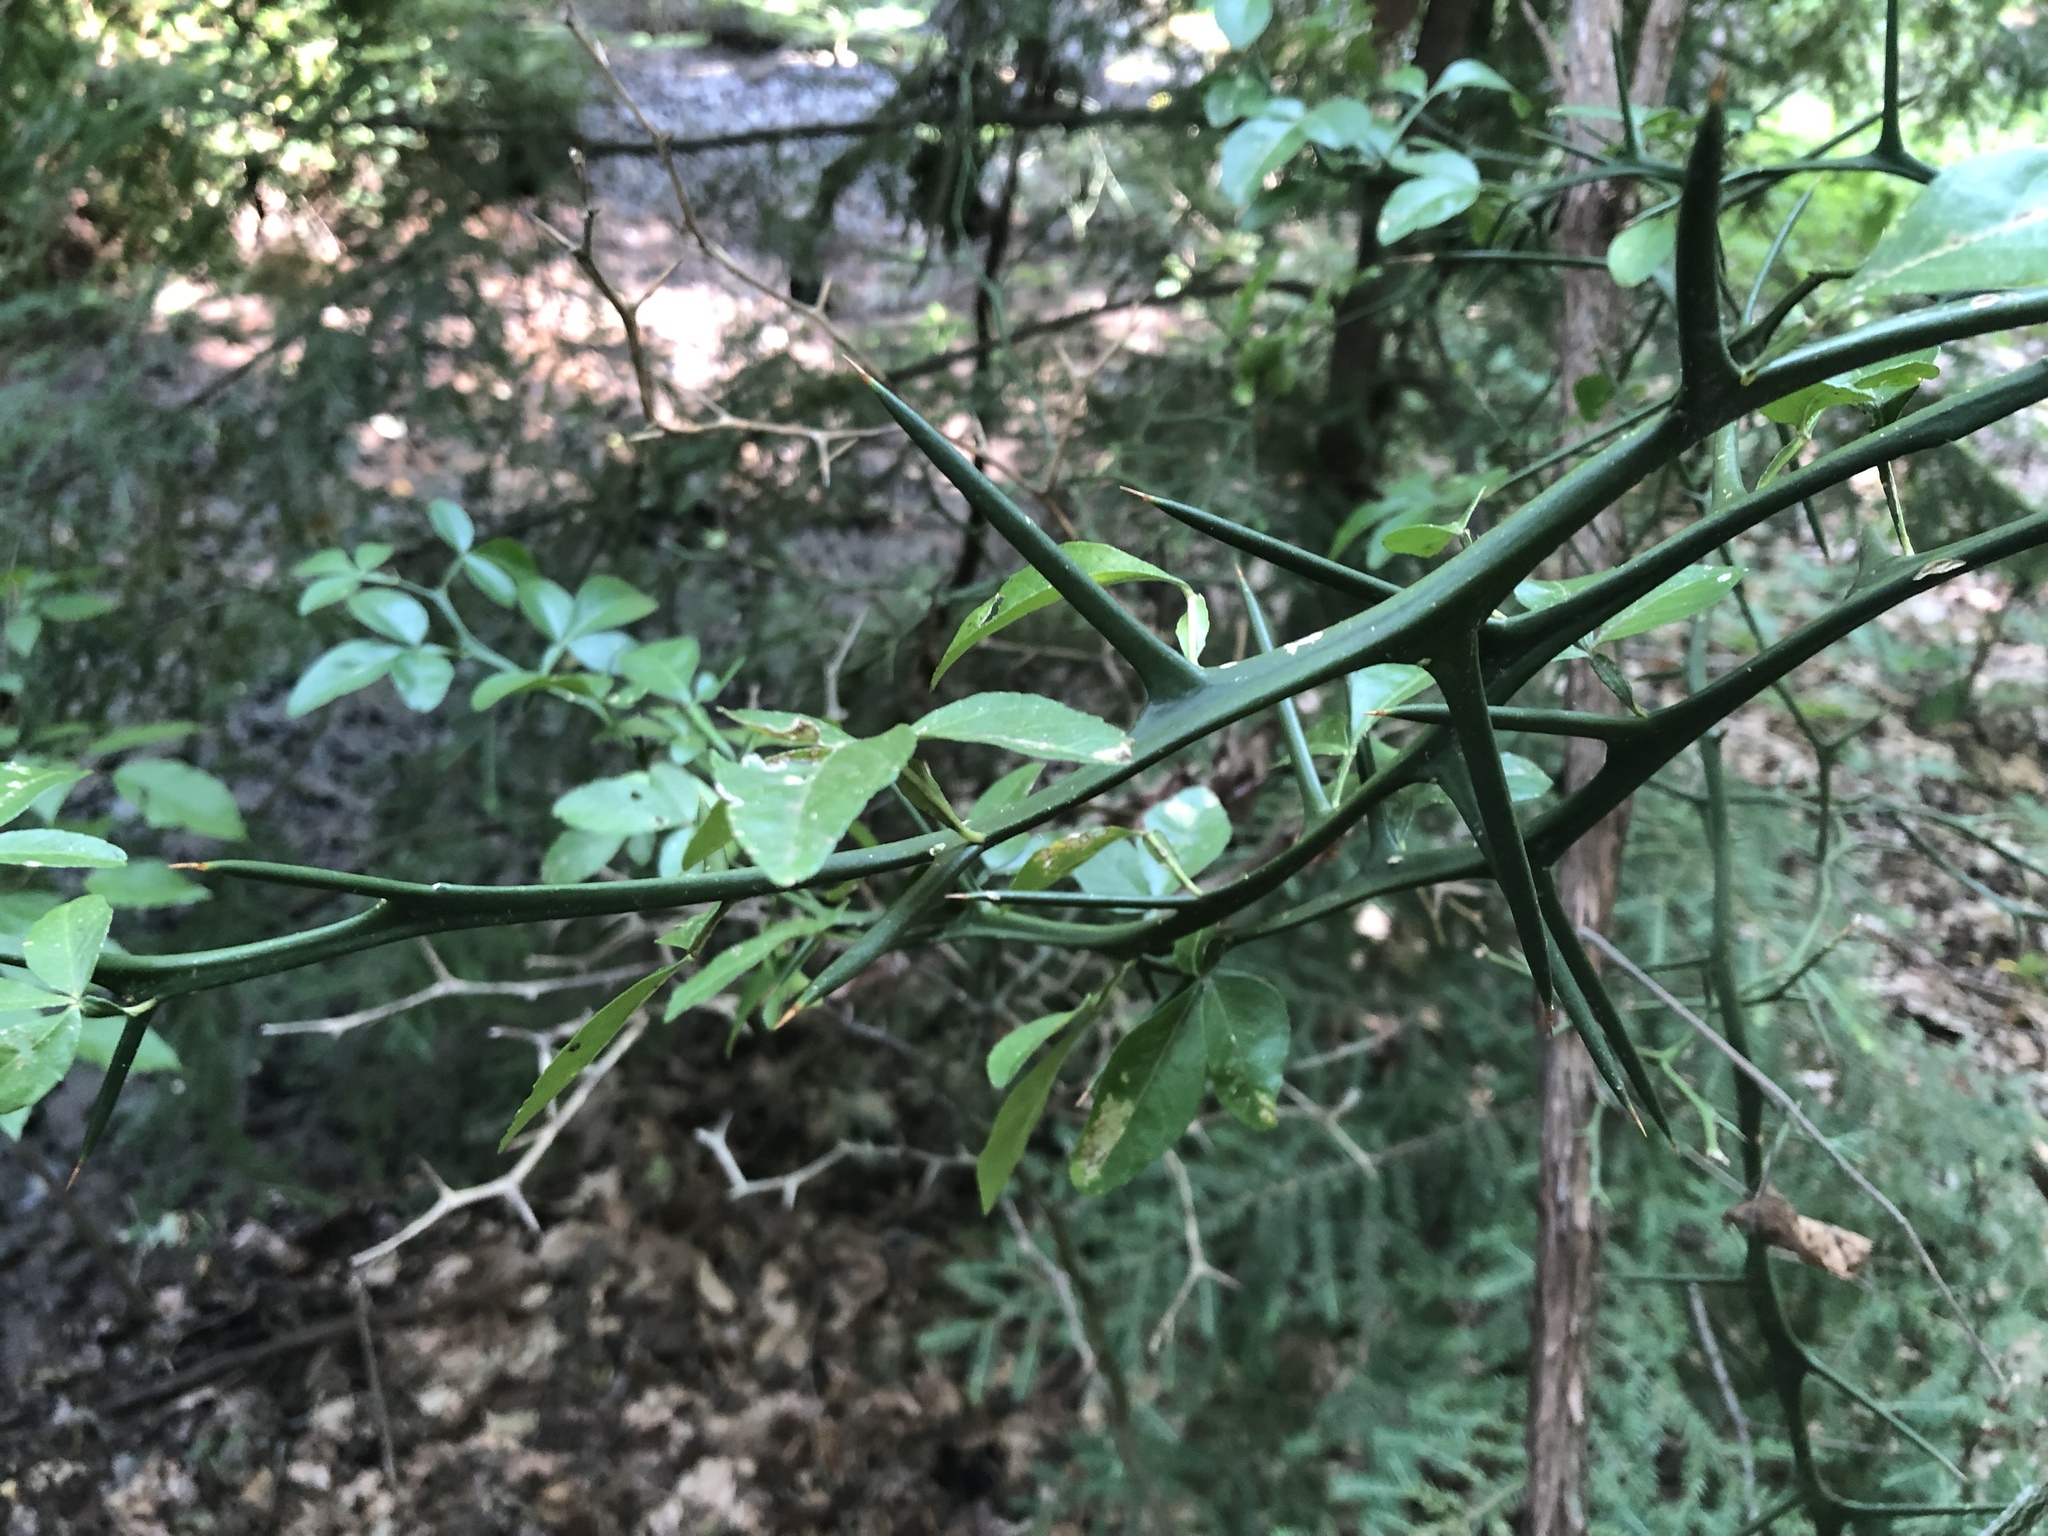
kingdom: Plantae
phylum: Tracheophyta
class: Magnoliopsida
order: Sapindales
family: Rutaceae
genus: Citrus
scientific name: Citrus trifoliata
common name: Japanese bitter-orange
